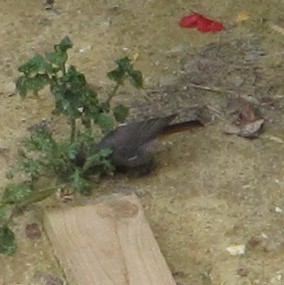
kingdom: Animalia
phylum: Chordata
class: Aves
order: Passeriformes
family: Muscicapidae
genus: Phoenicurus
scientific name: Phoenicurus ochruros
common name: Black redstart
